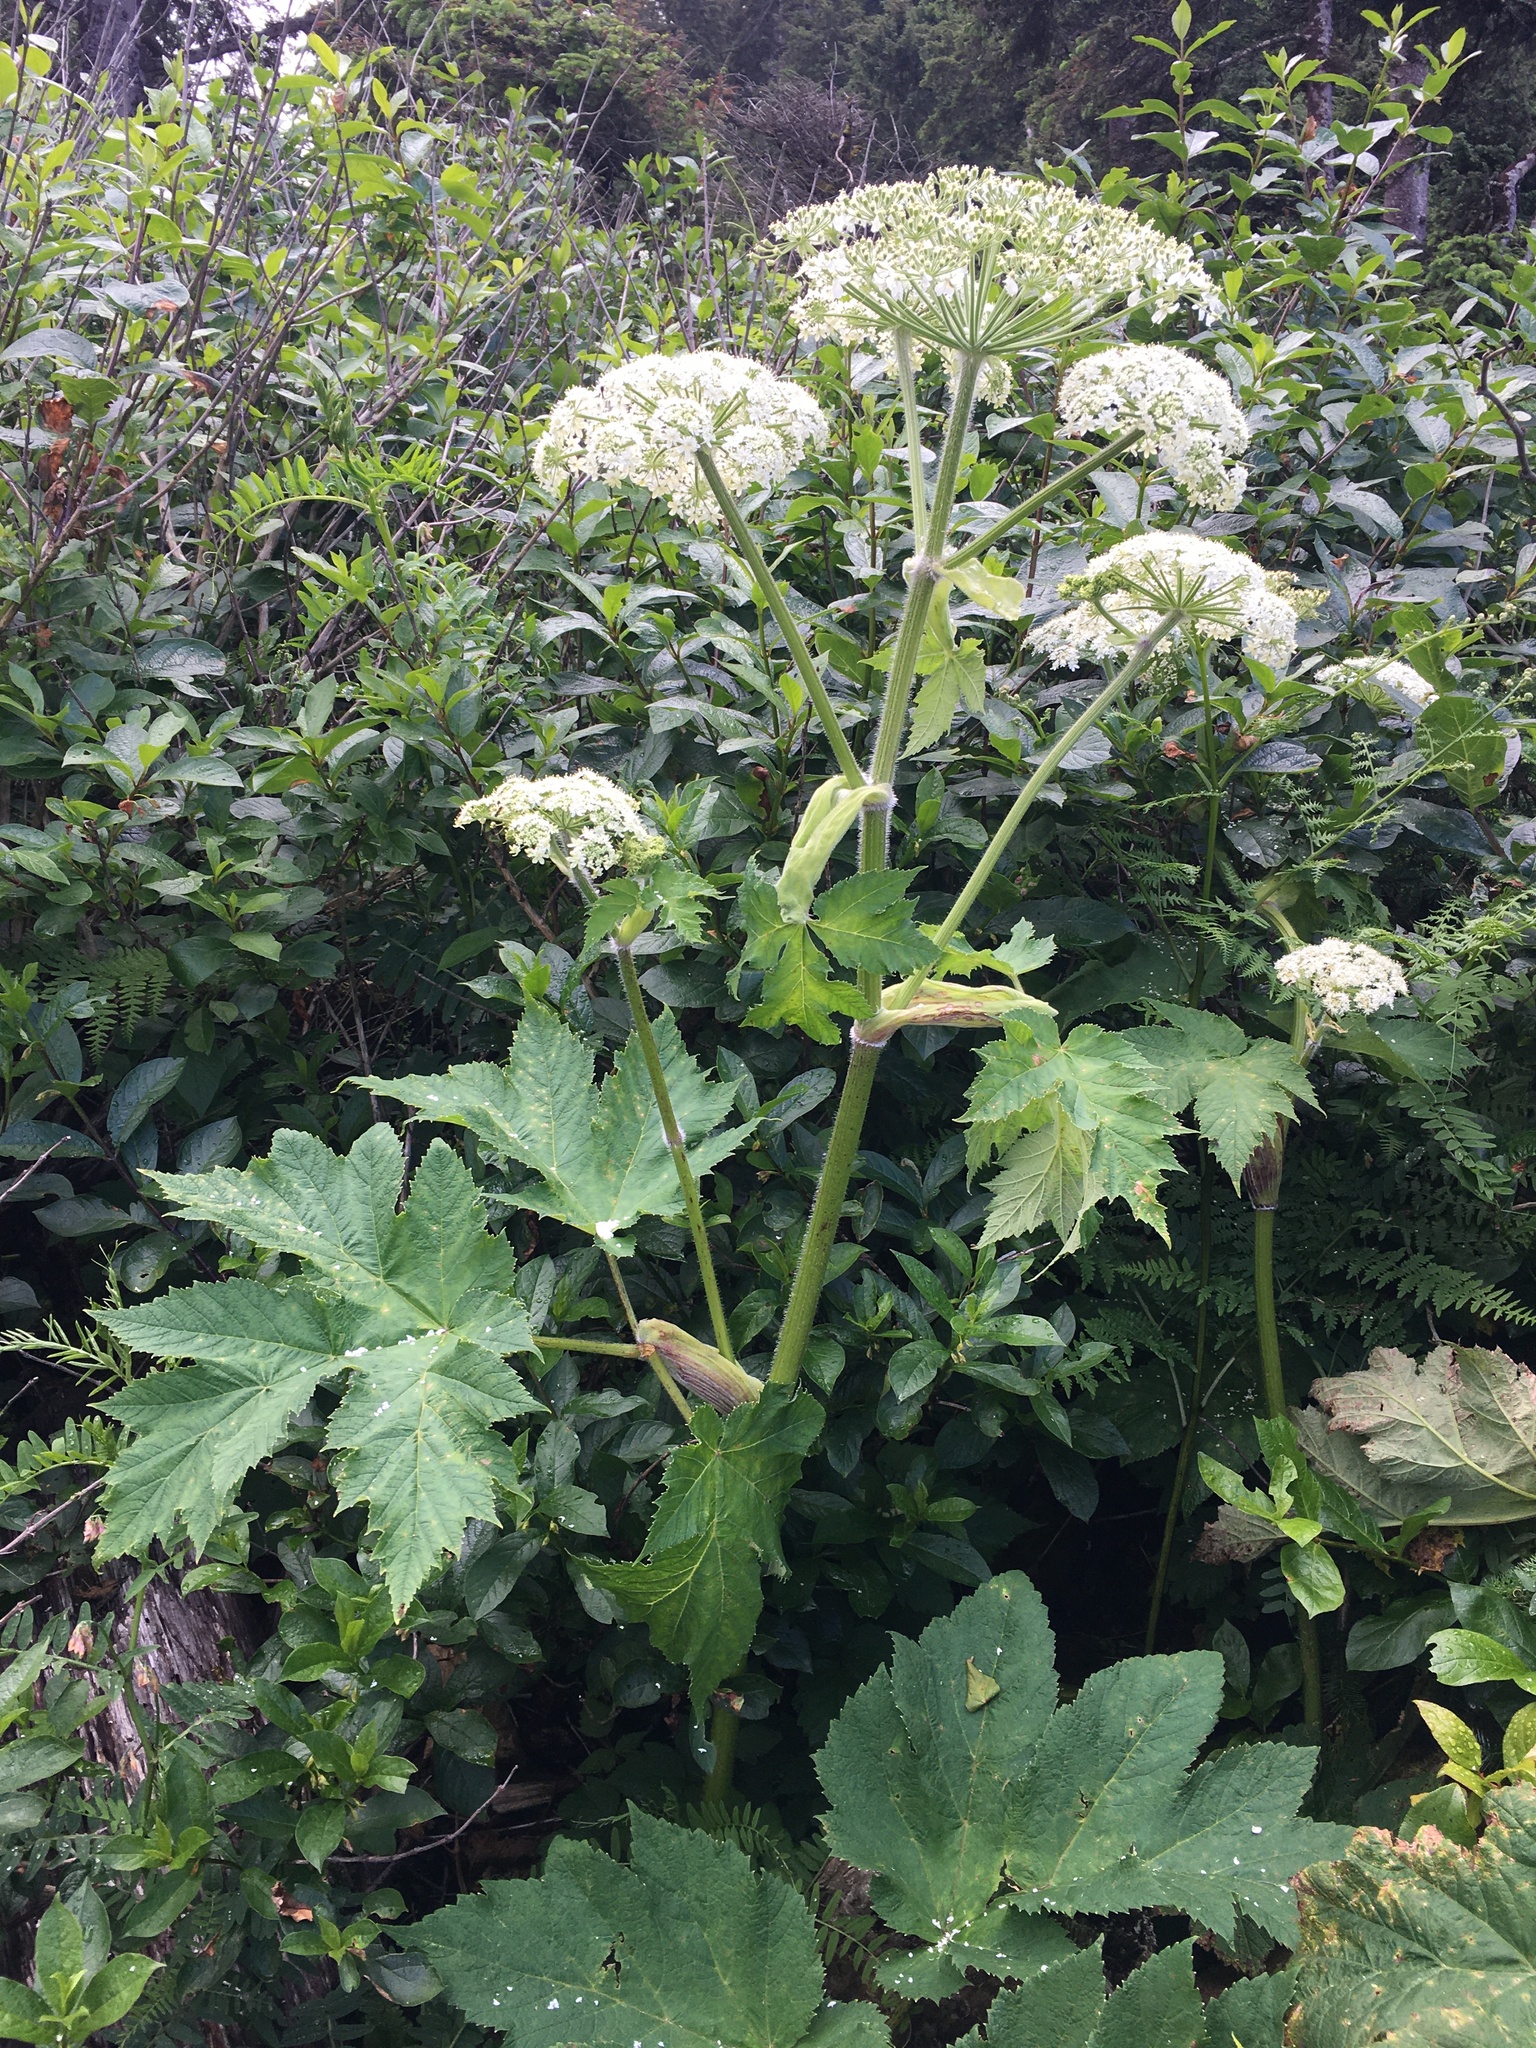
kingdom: Plantae
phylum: Tracheophyta
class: Magnoliopsida
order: Apiales
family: Apiaceae
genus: Heracleum
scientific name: Heracleum maximum
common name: American cow parsnip
